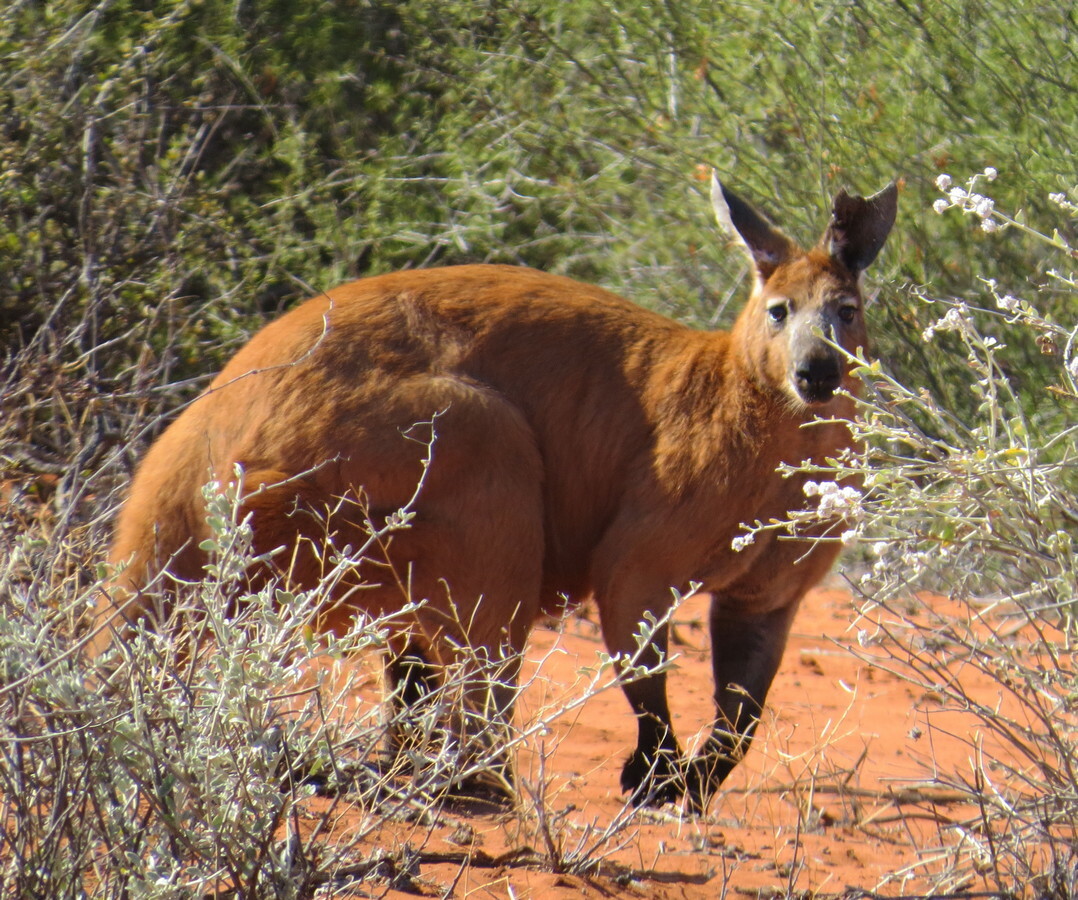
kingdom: Animalia
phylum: Chordata
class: Mammalia
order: Diprotodontia
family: Macropodidae
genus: Macropus
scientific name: Macropus robustus
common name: Eastern wallaroo
